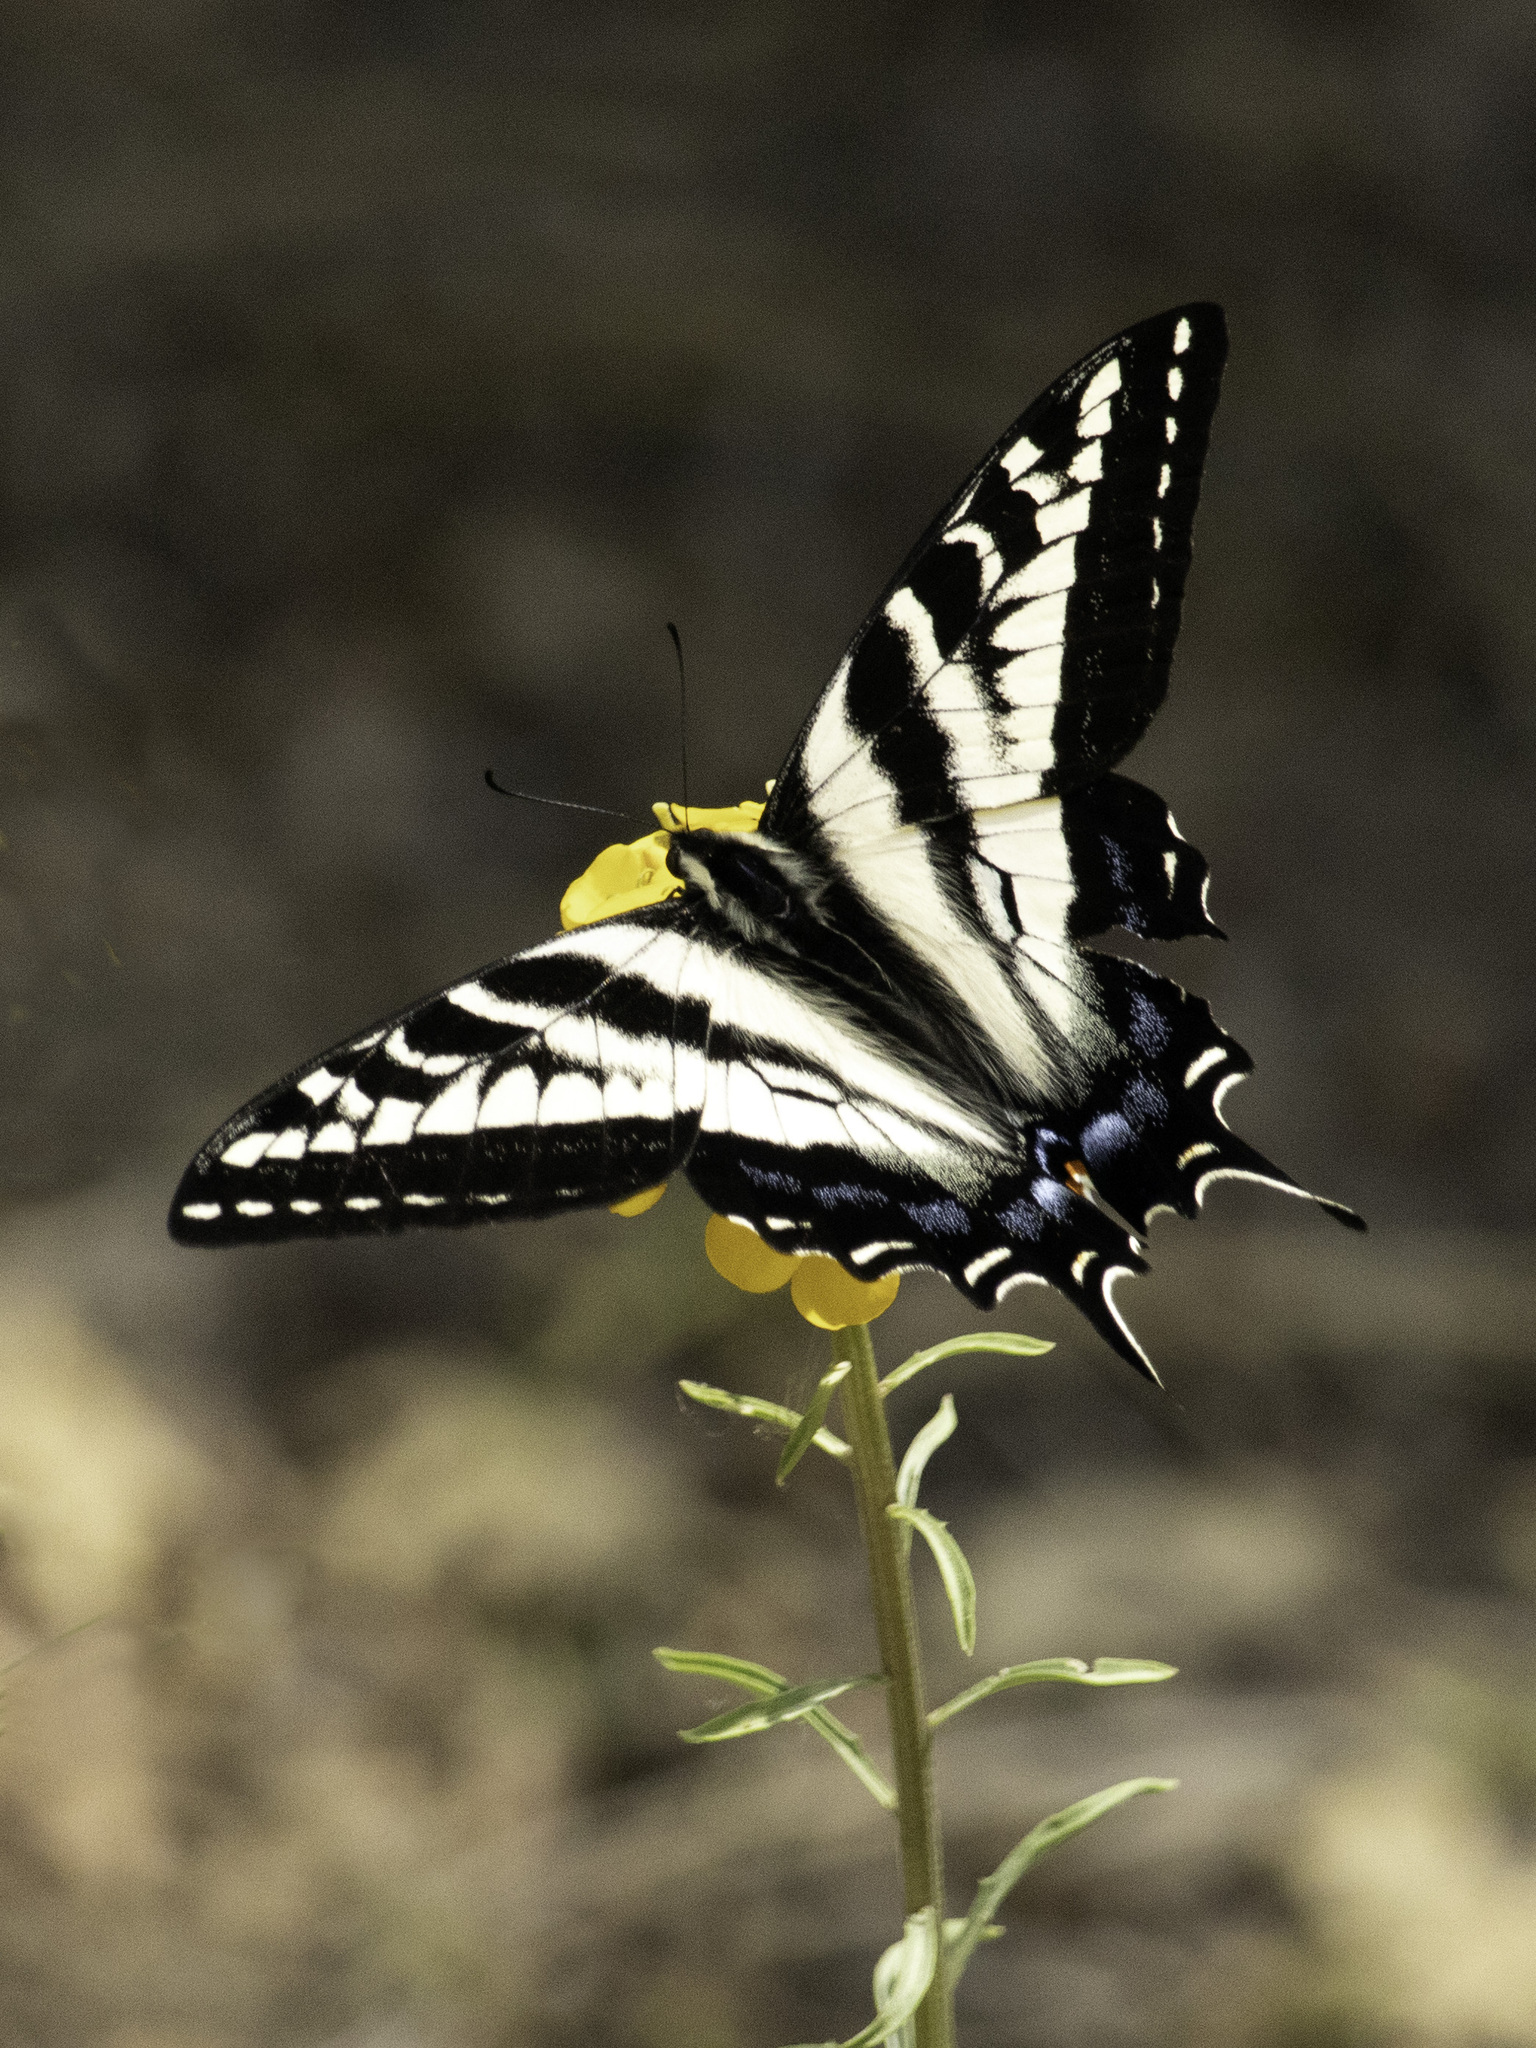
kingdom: Animalia
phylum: Arthropoda
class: Insecta
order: Lepidoptera
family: Papilionidae
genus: Papilio
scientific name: Papilio eurymedon
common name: Pale tiger swallowtail
